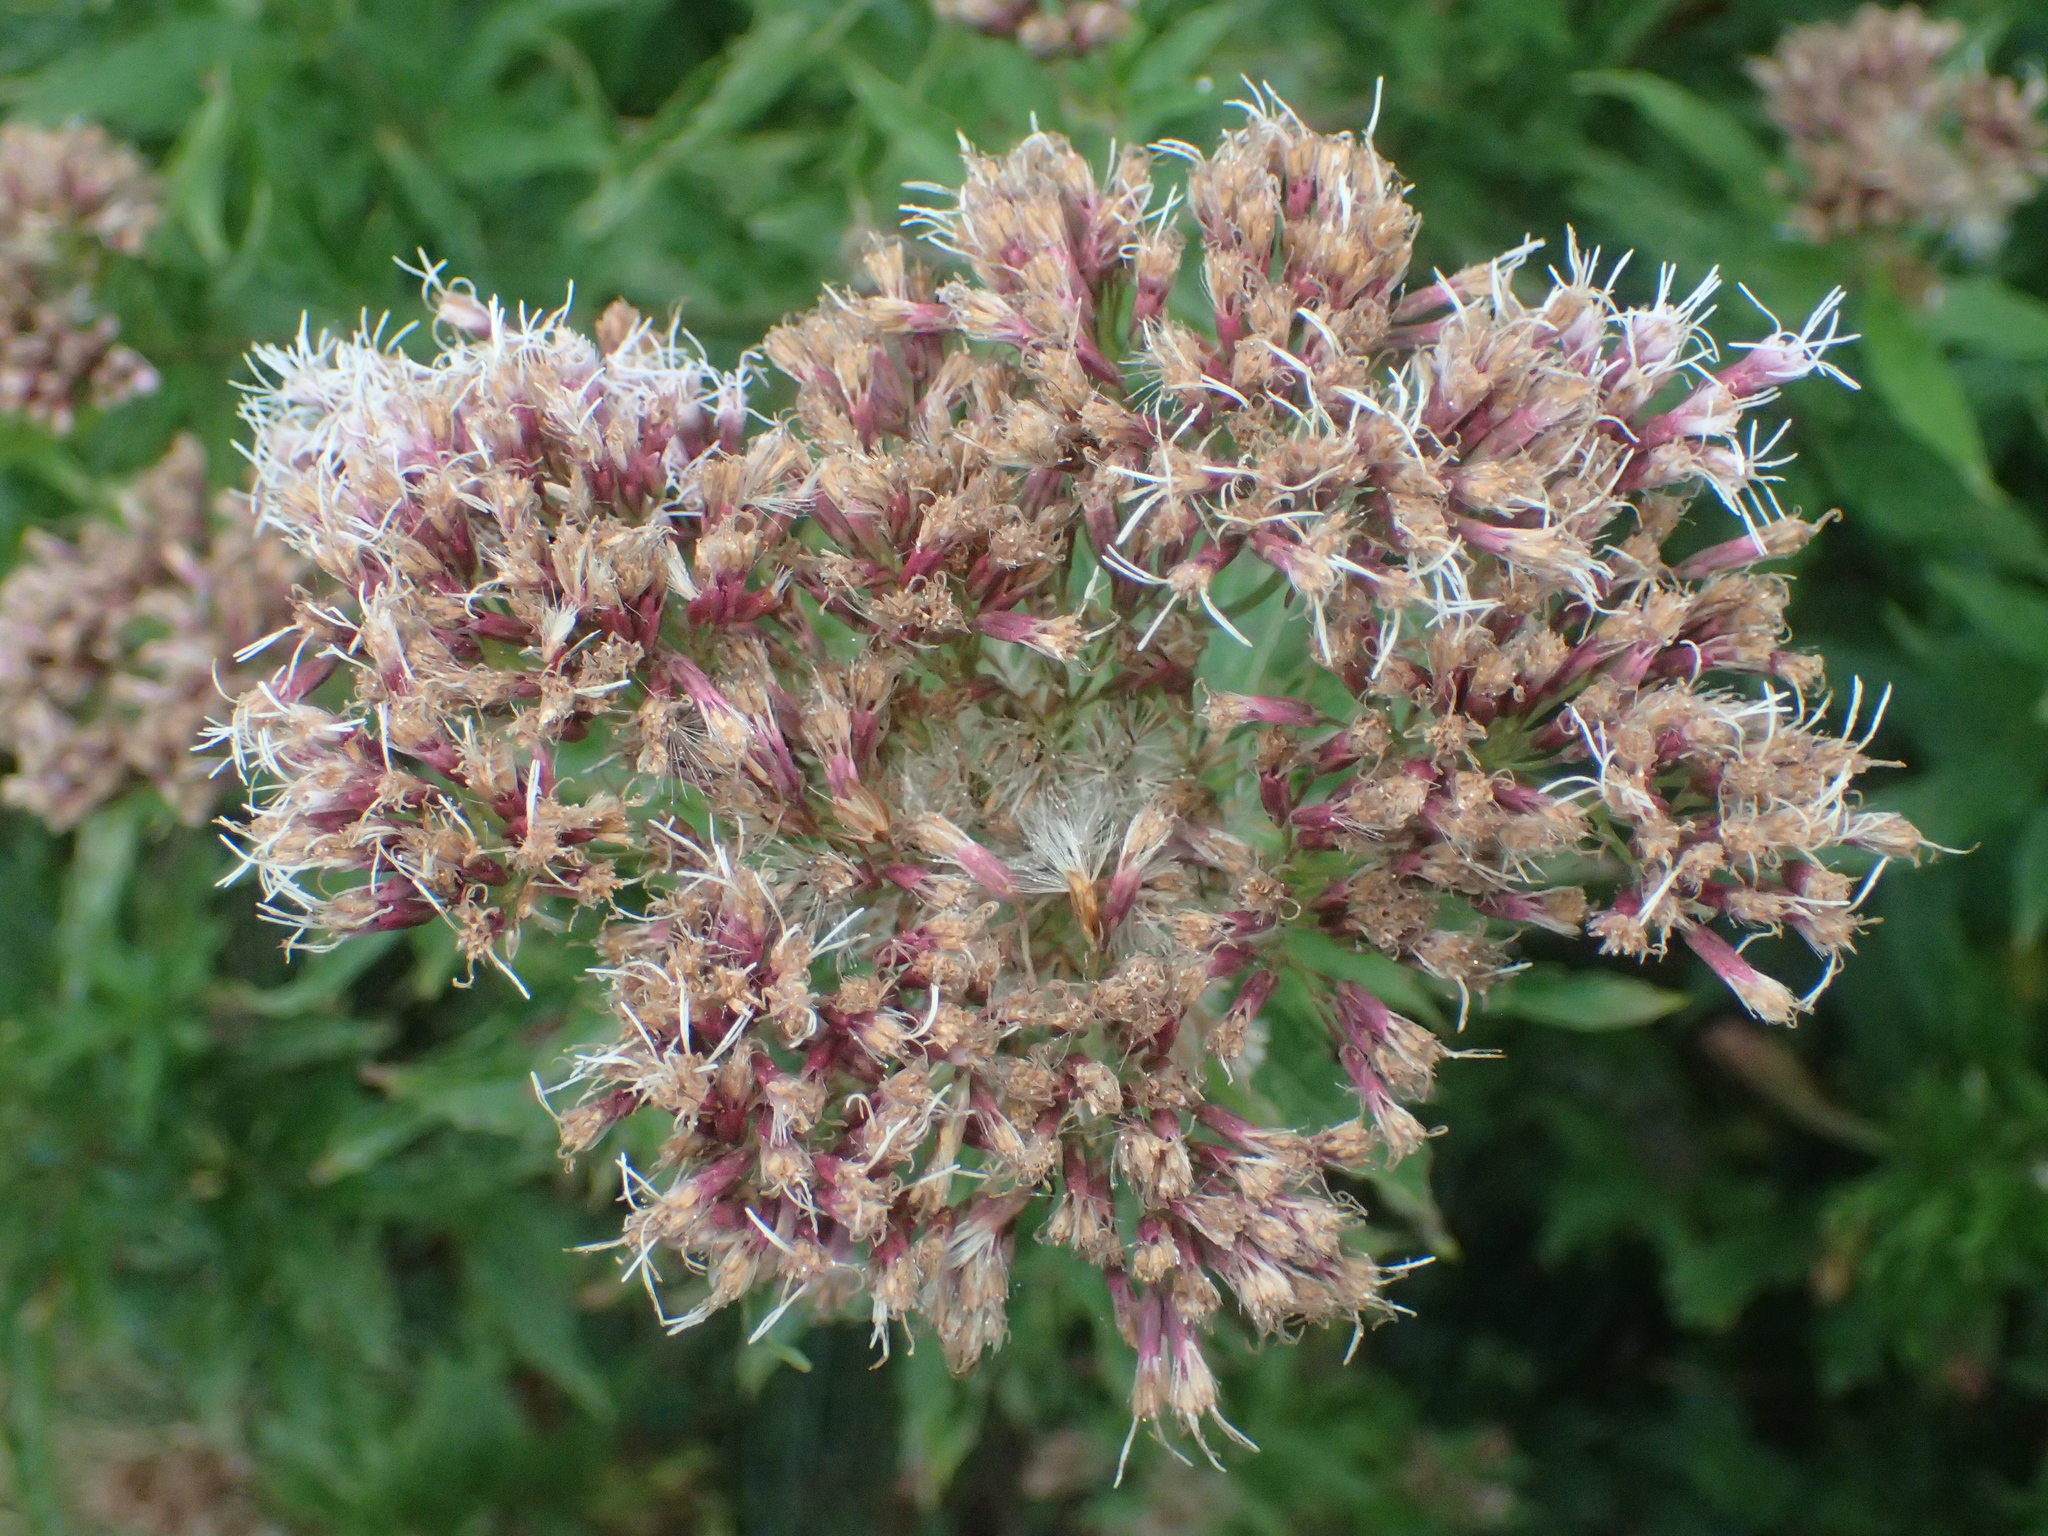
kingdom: Plantae
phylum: Tracheophyta
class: Magnoliopsida
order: Asterales
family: Asteraceae
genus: Eupatorium
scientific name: Eupatorium cannabinum
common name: Hemp-agrimony
